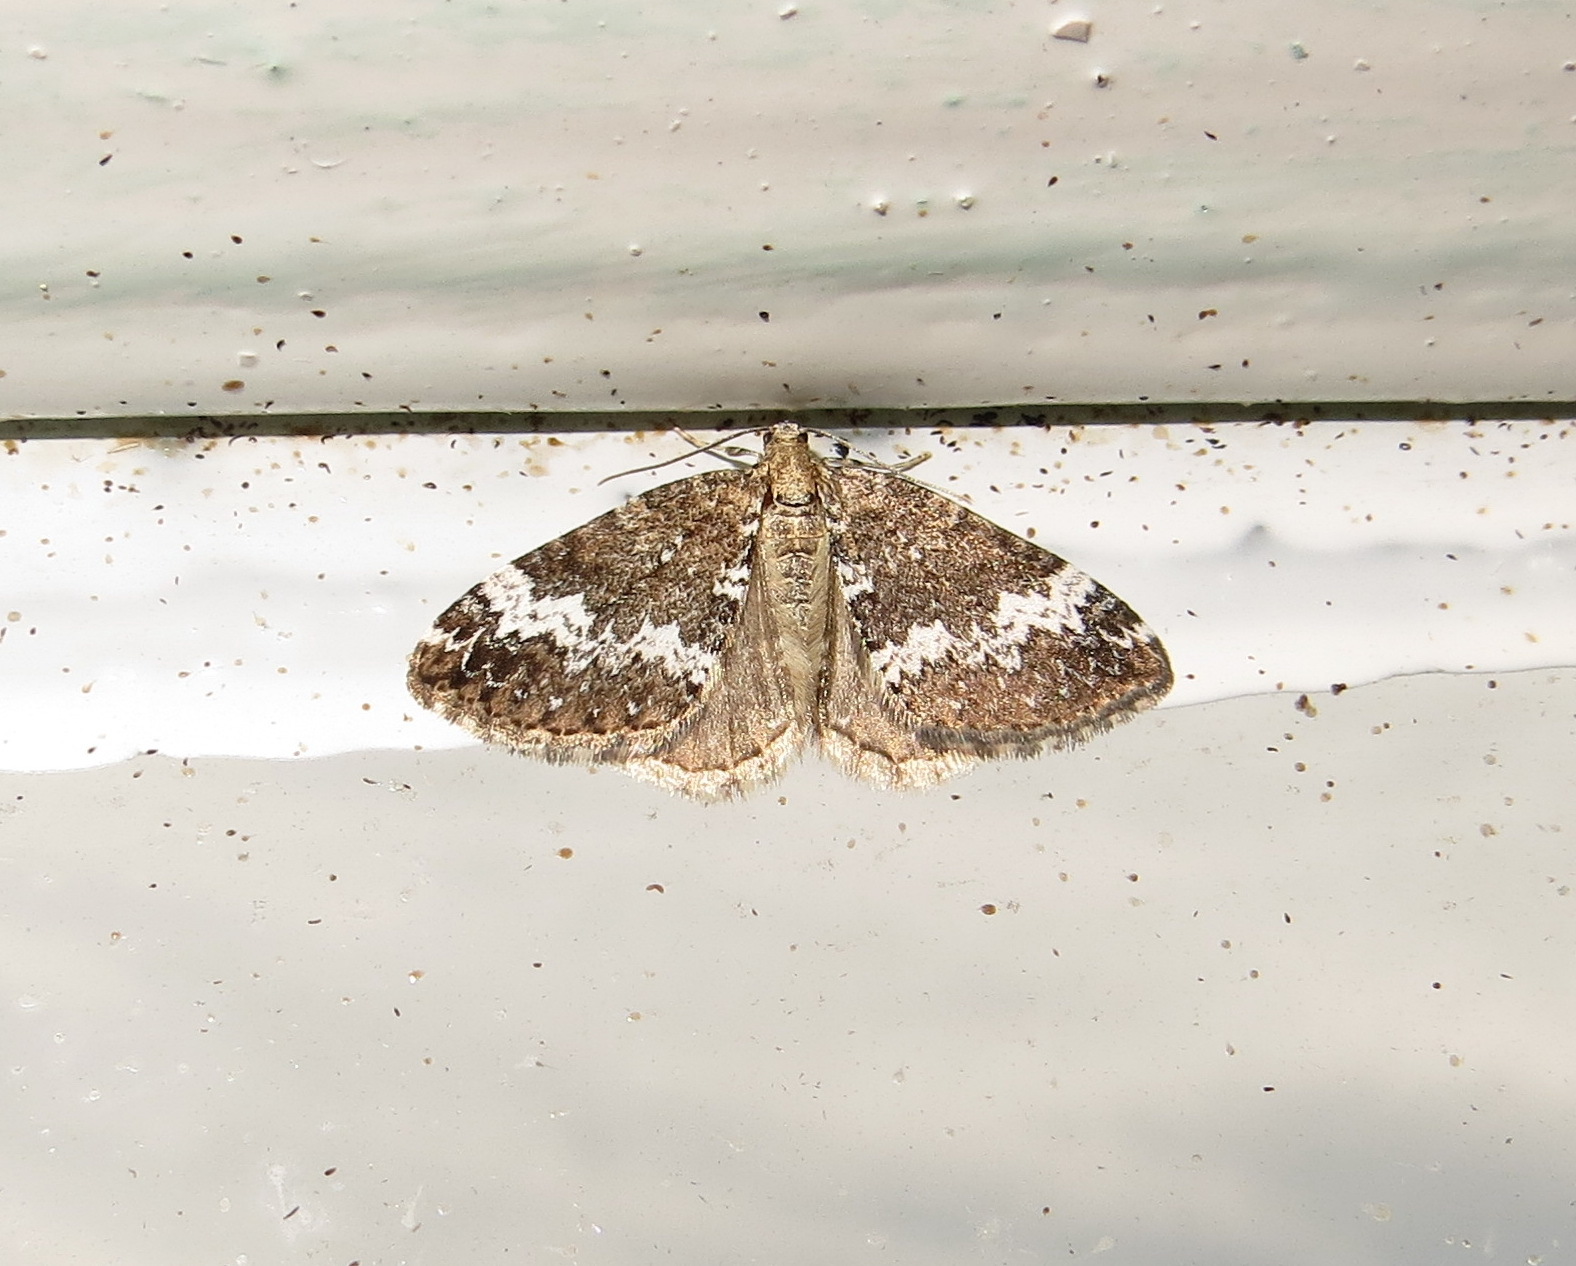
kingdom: Animalia
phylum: Arthropoda
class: Insecta
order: Lepidoptera
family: Geometridae
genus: Perizoma
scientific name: Perizoma alchemillata
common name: Small rivulet
